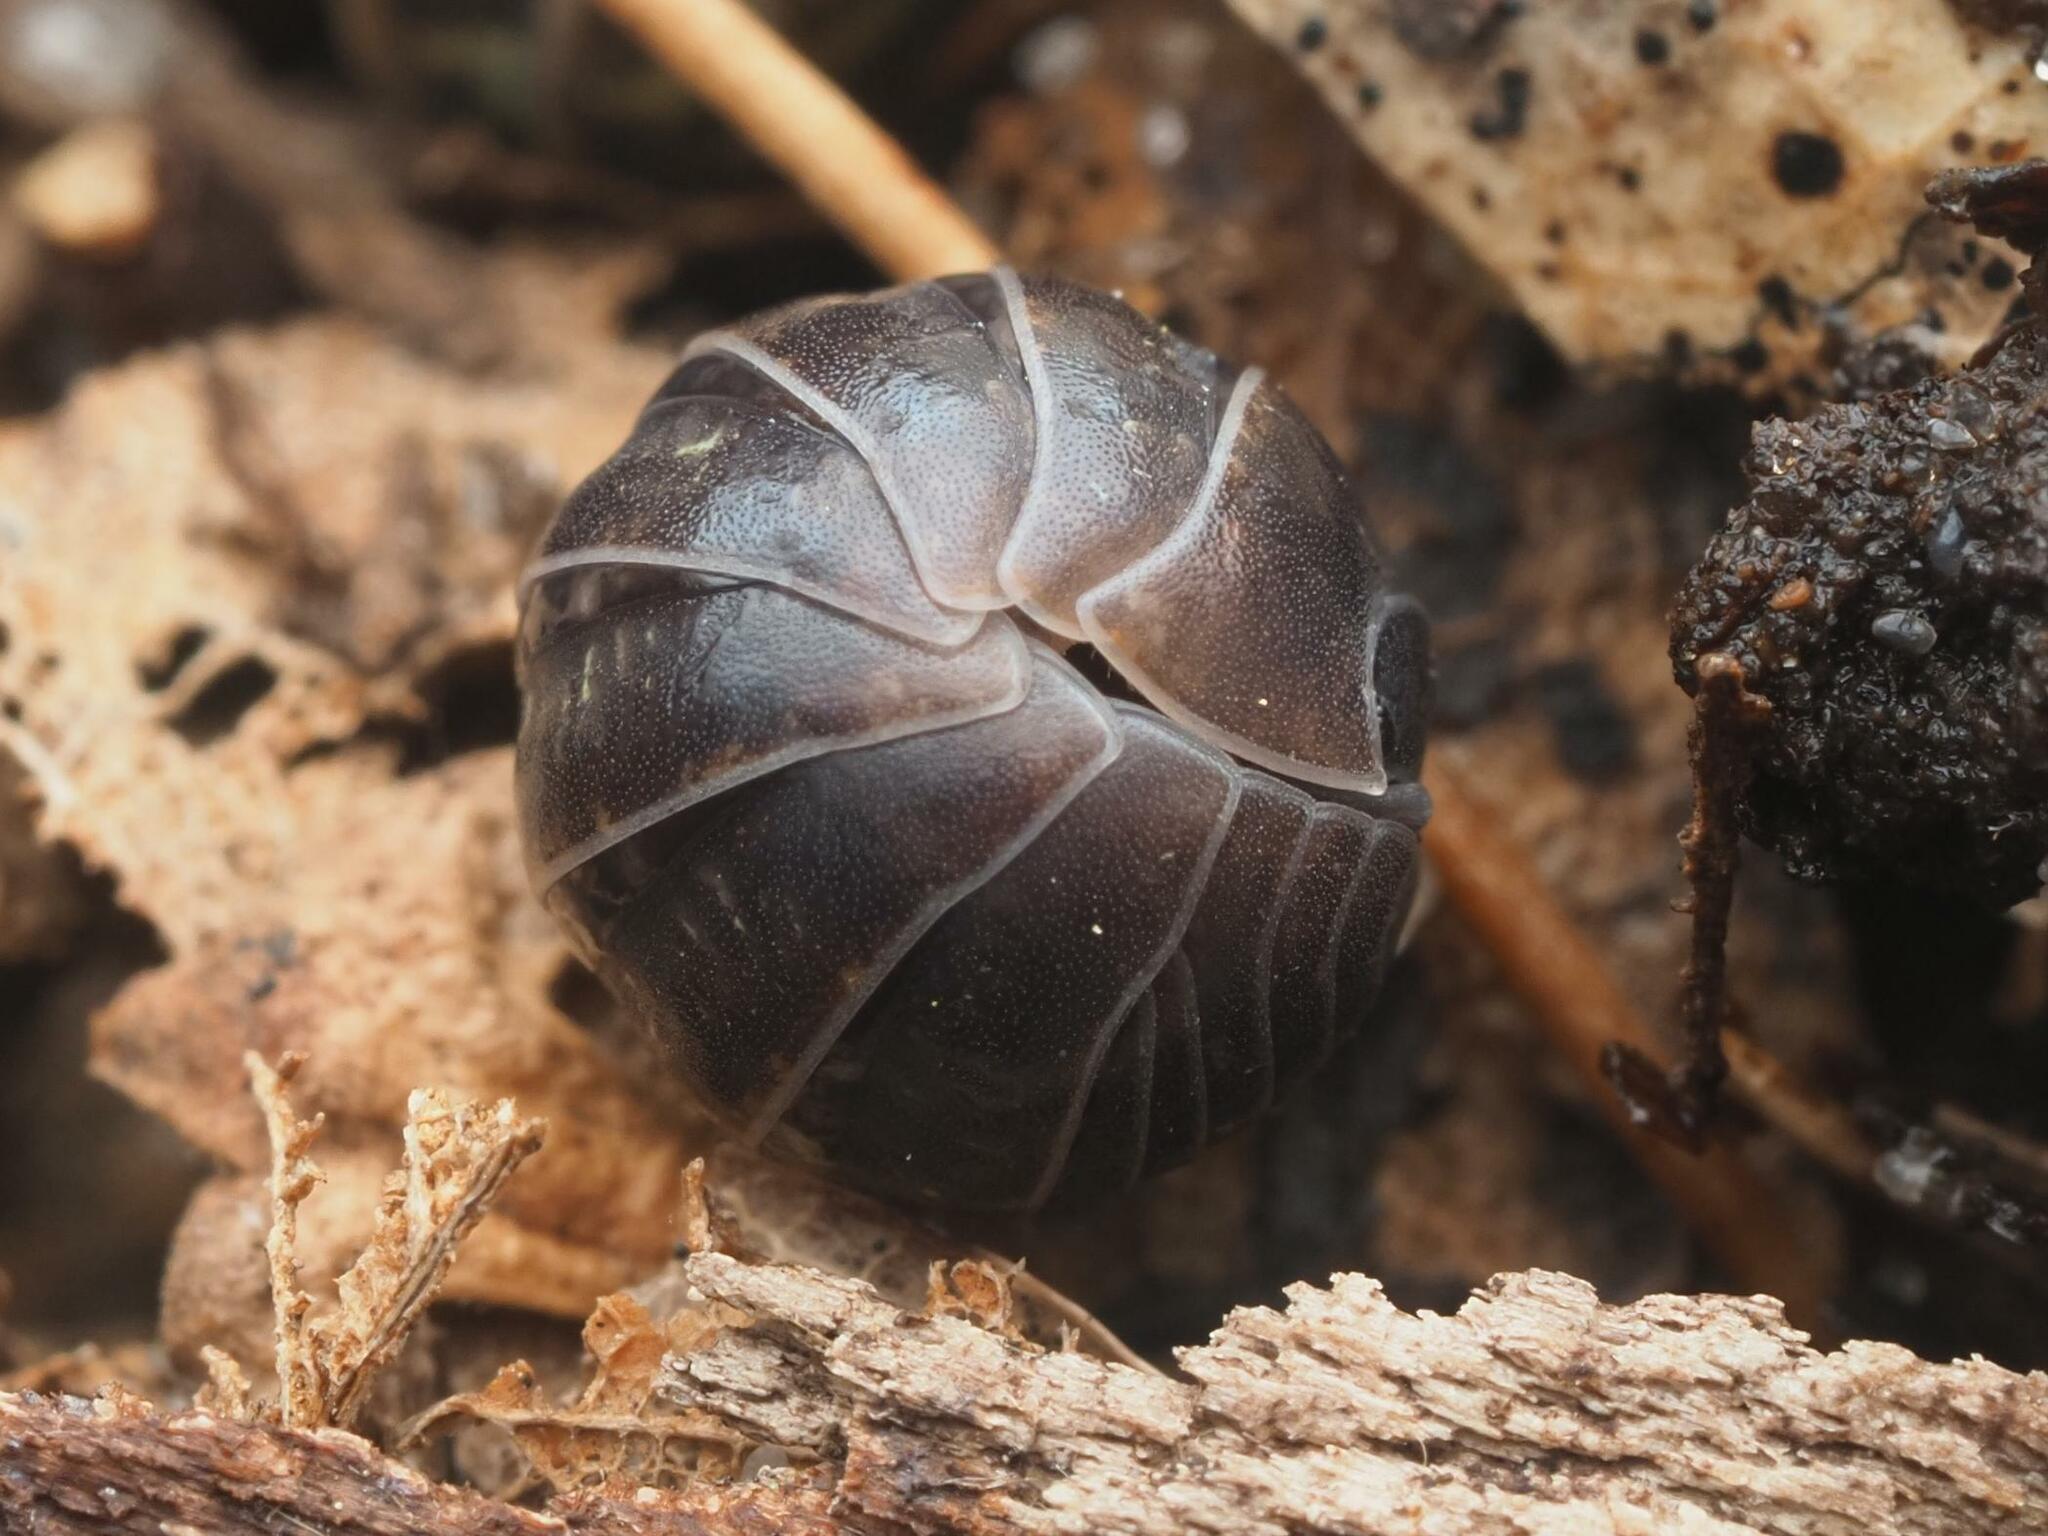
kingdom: Animalia
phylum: Arthropoda
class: Malacostraca
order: Isopoda
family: Armadillidiidae
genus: Armadillidium
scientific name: Armadillidium vulgare
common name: Common pill woodlouse
